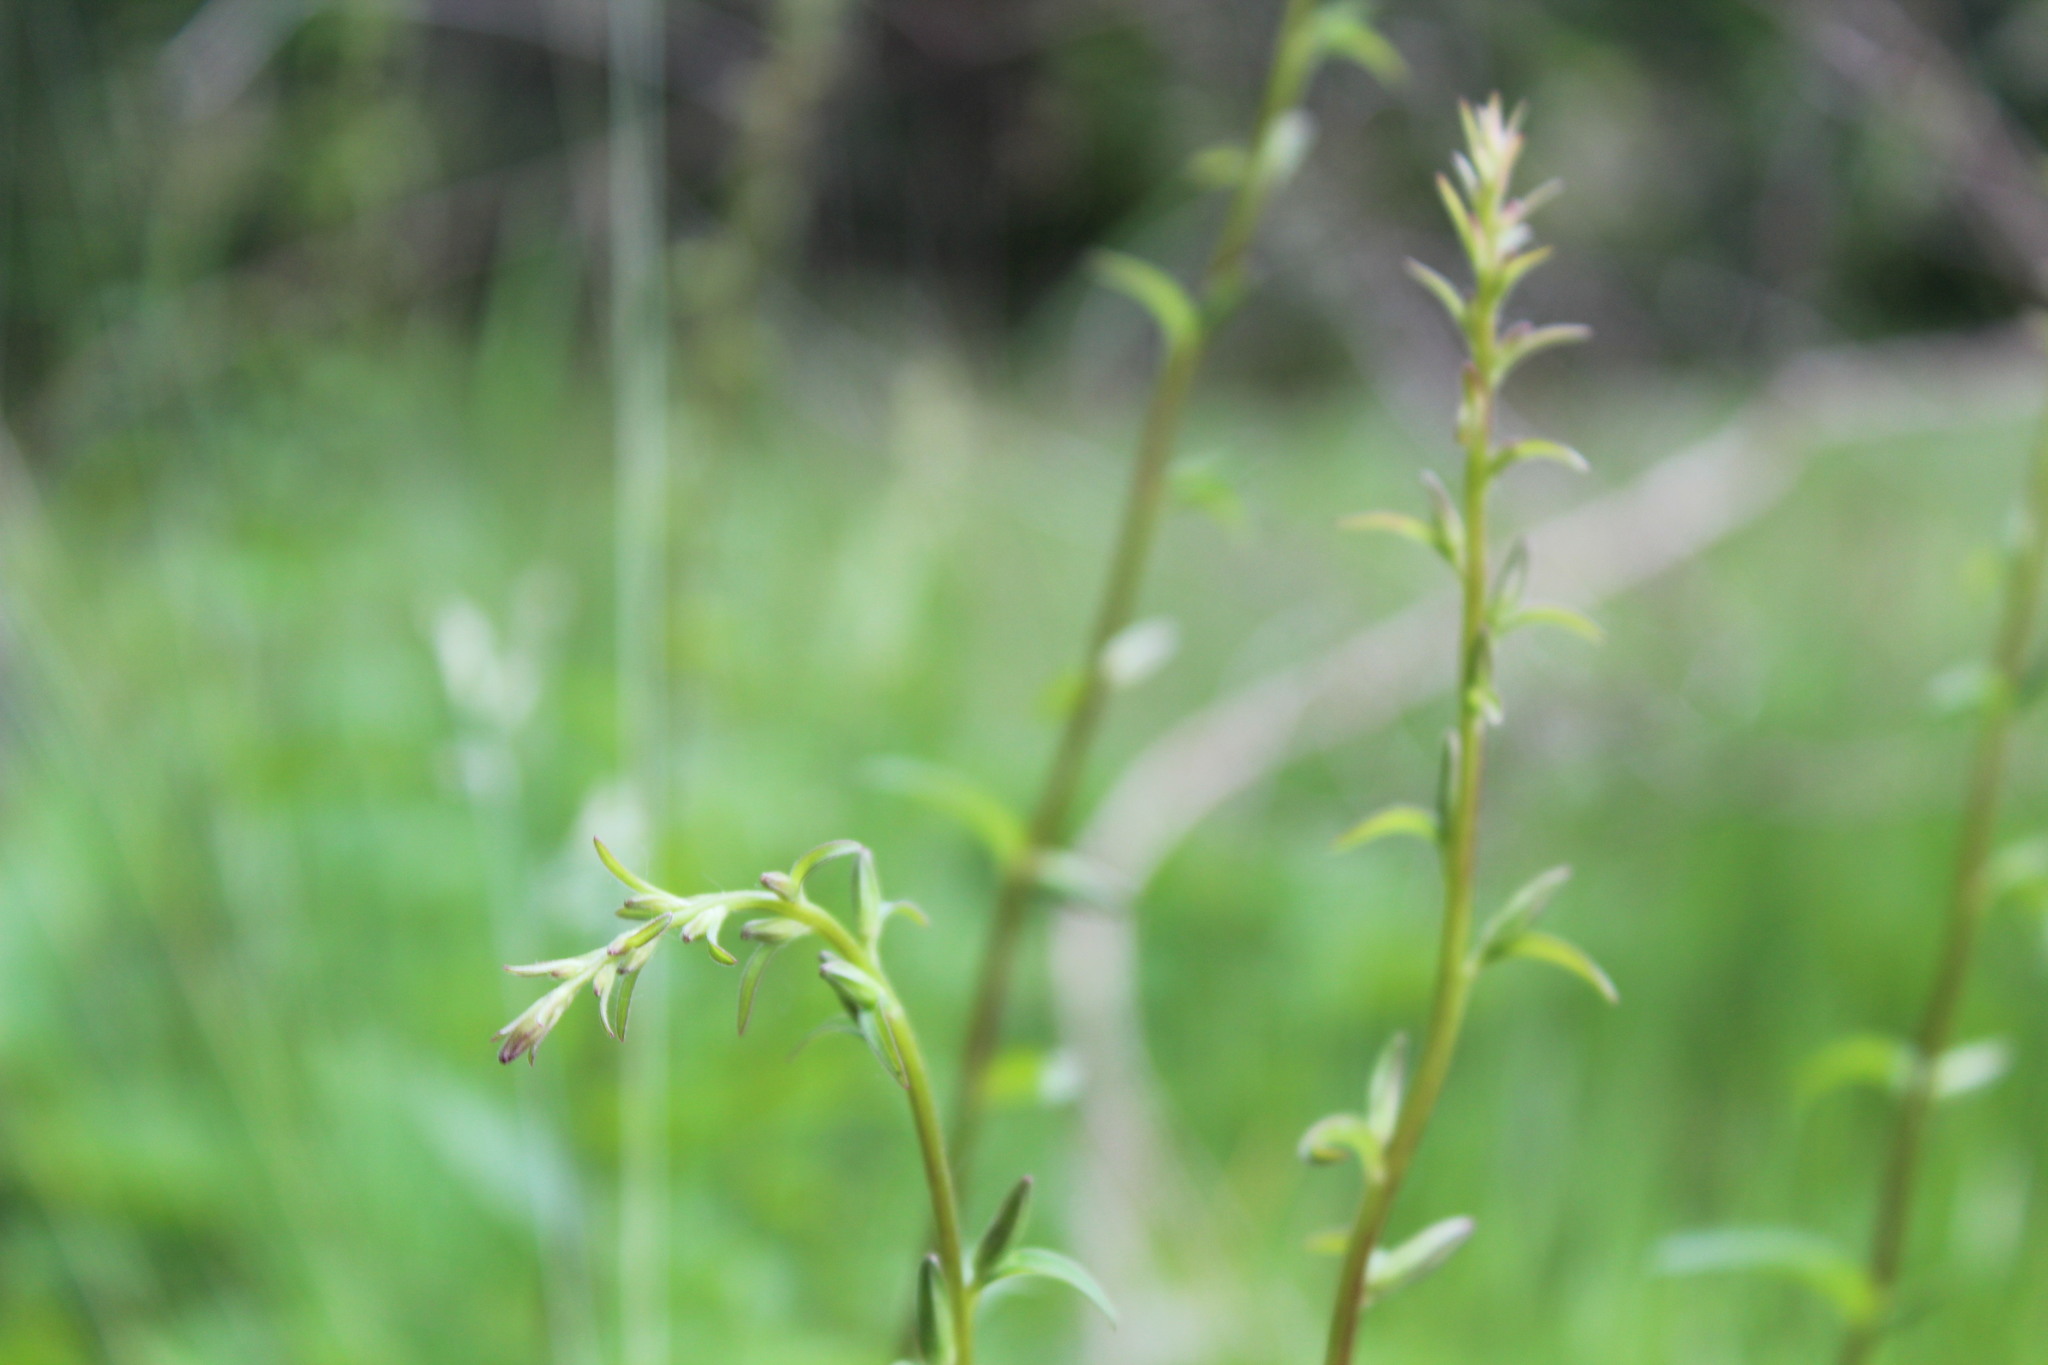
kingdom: Plantae
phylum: Tracheophyta
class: Magnoliopsida
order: Asterales
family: Campanulaceae
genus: Campanula
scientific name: Campanula rapunculoides
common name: Creeping bellflower
